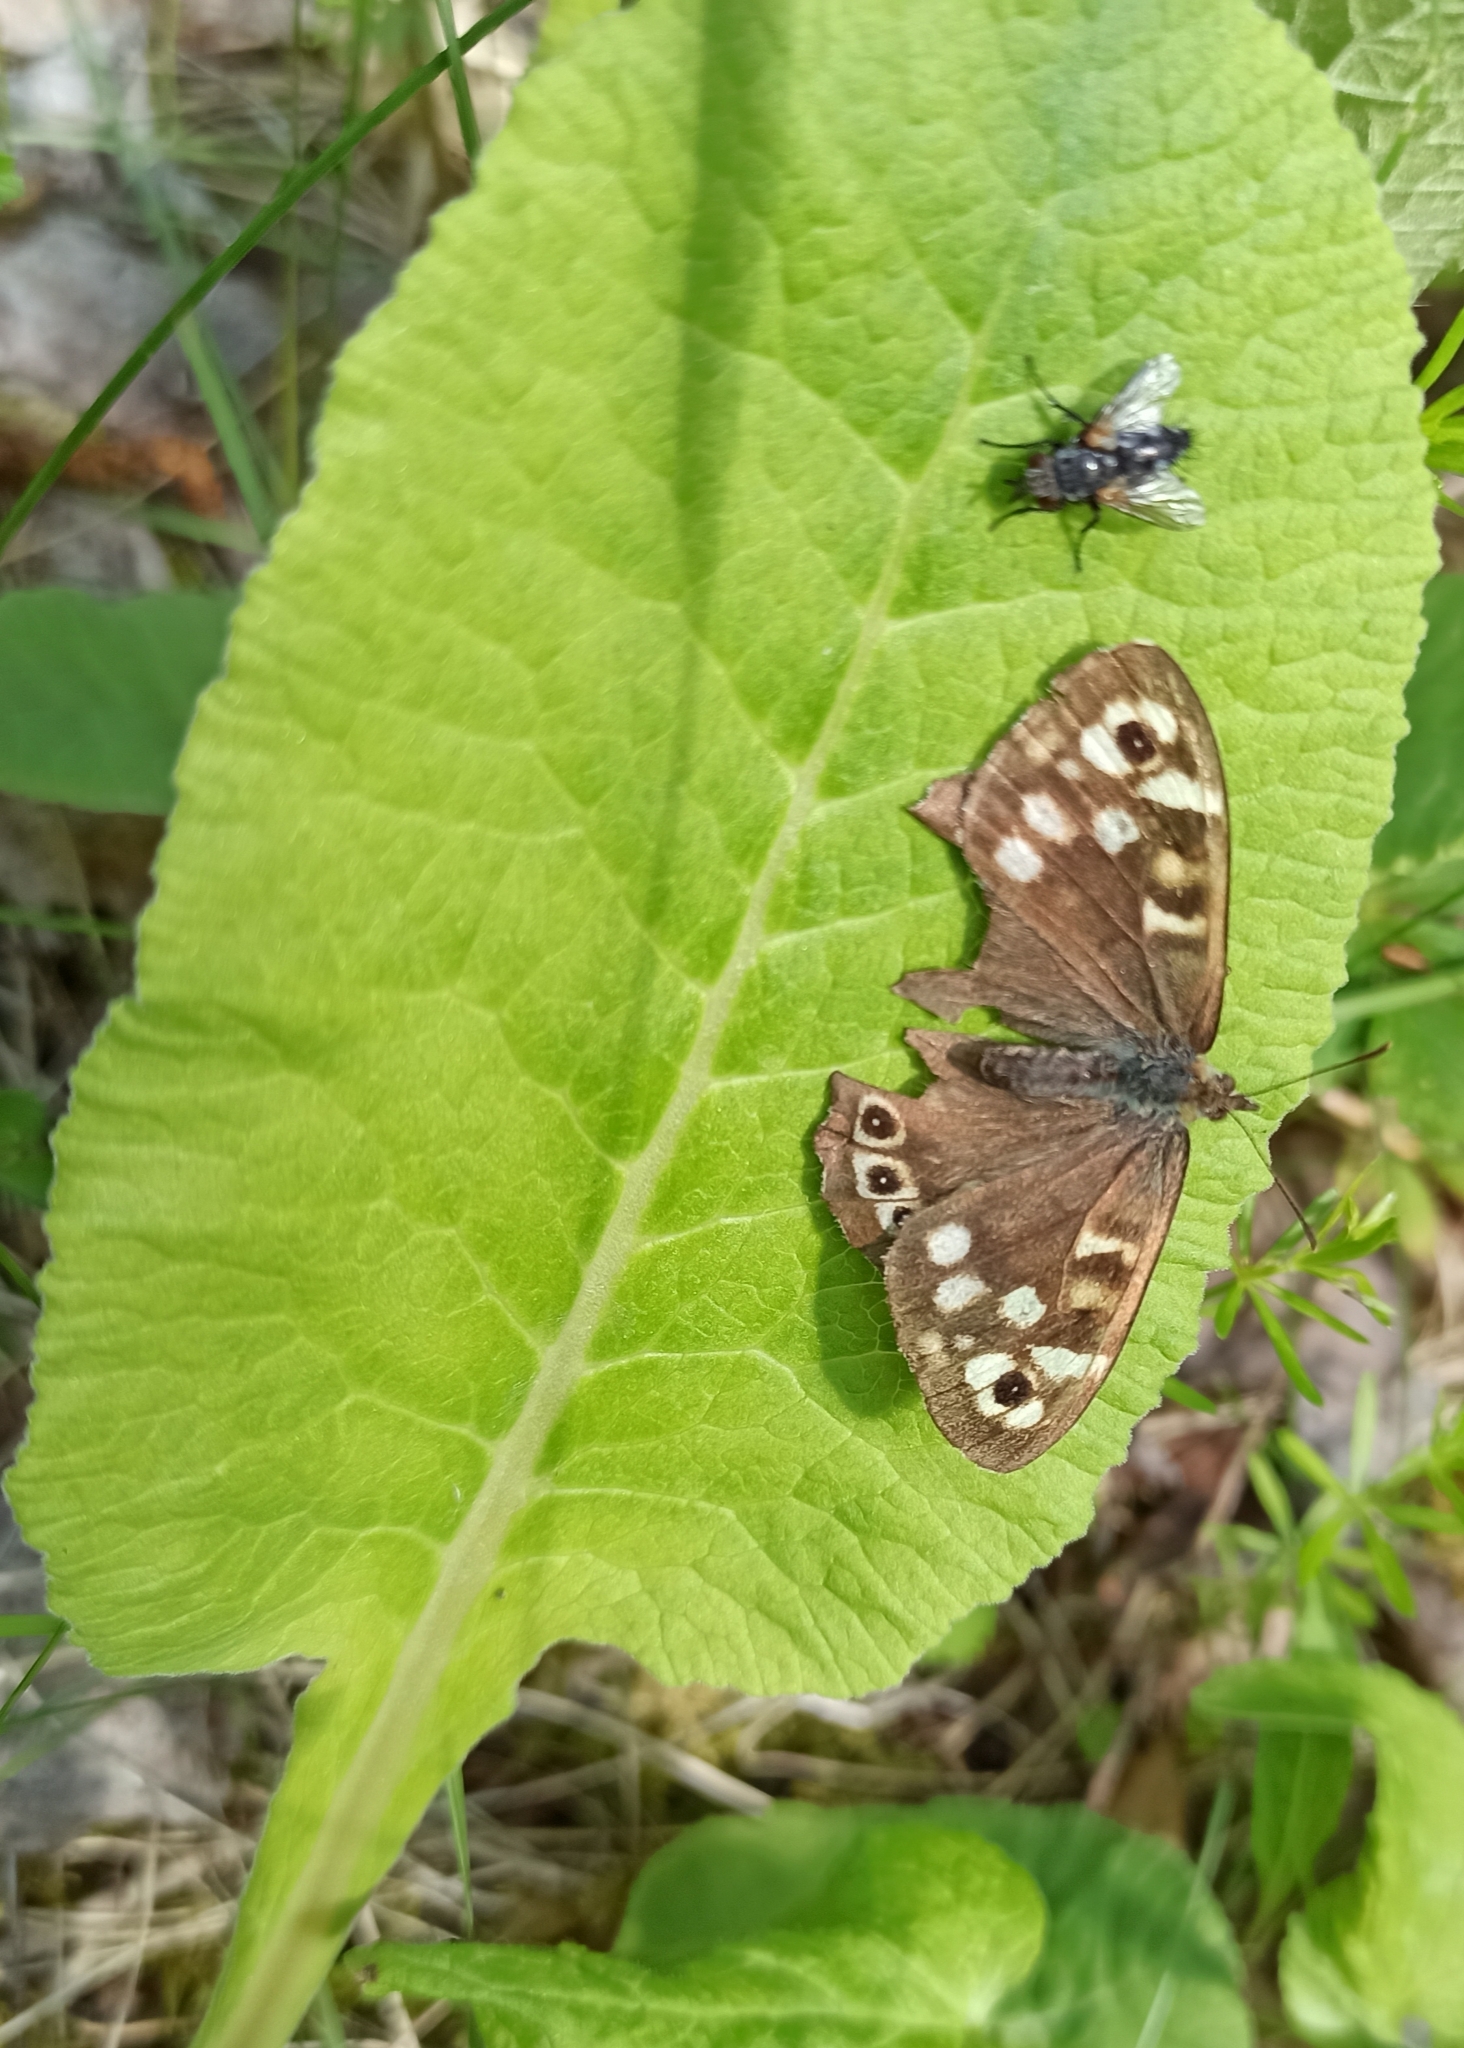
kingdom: Animalia
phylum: Arthropoda
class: Insecta
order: Lepidoptera
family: Nymphalidae
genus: Pararge
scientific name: Pararge aegeria
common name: Speckled wood
